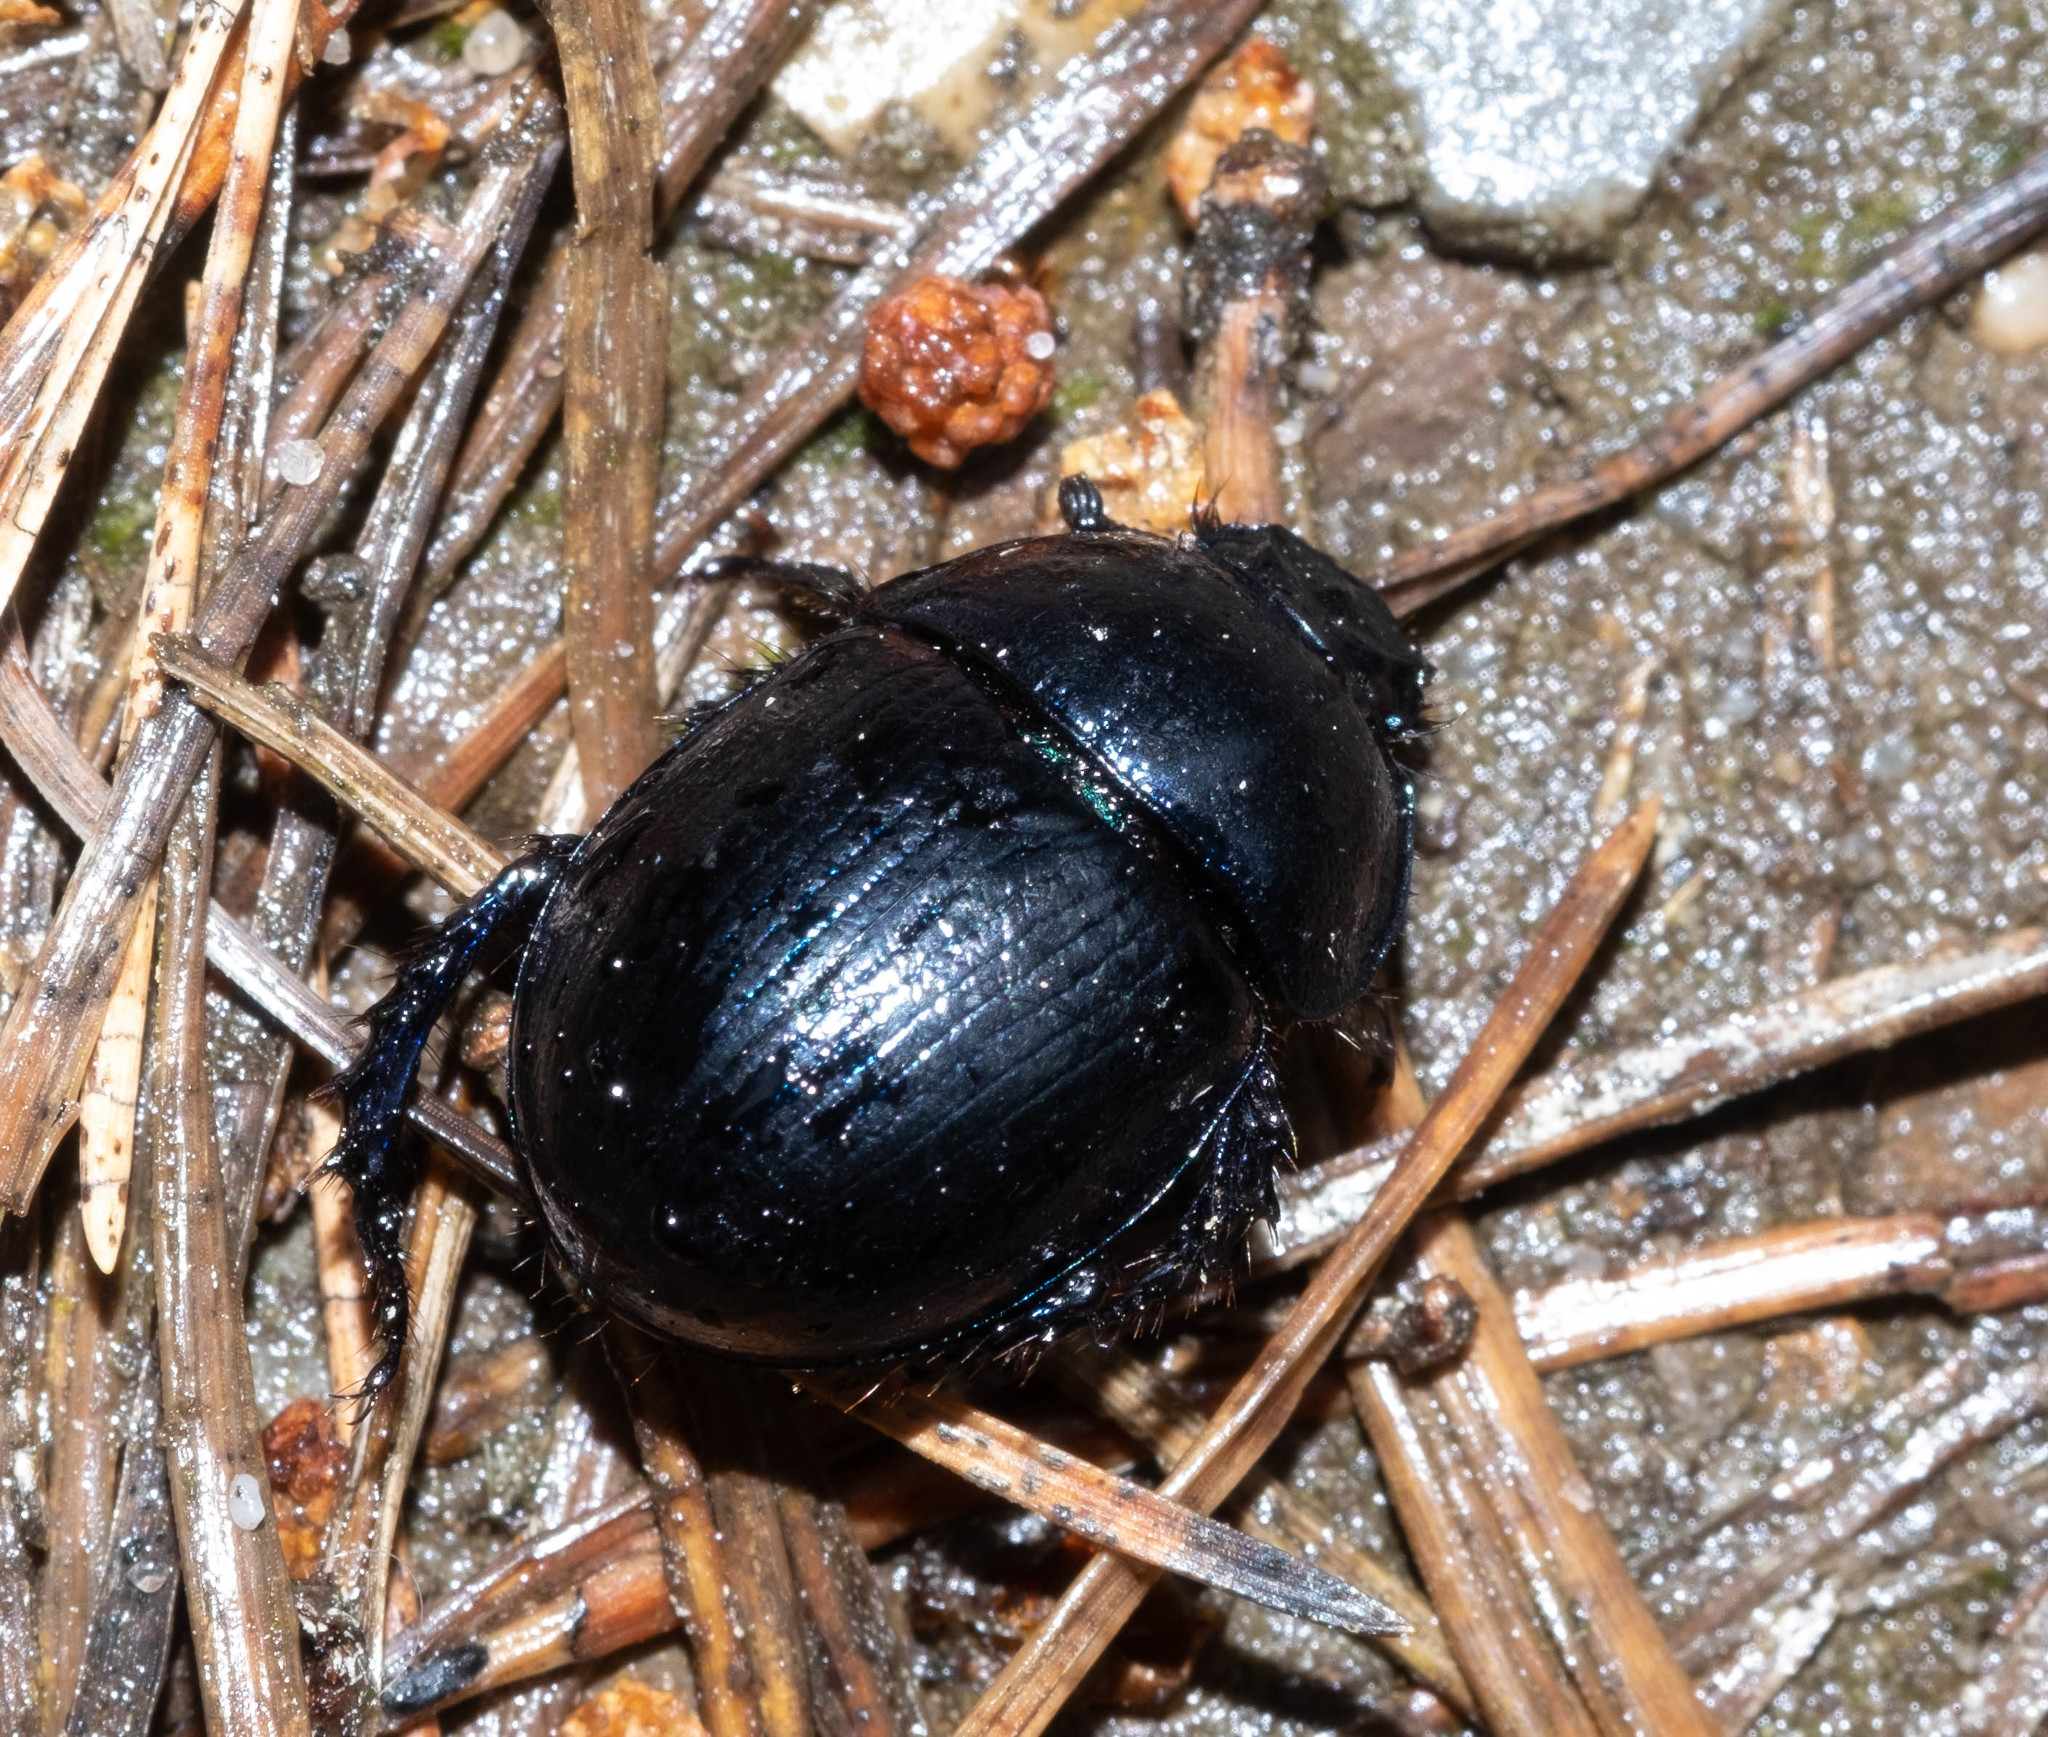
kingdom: Animalia
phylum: Arthropoda
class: Insecta
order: Coleoptera
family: Geotrupidae
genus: Anoplotrupes
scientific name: Anoplotrupes stercorosus
